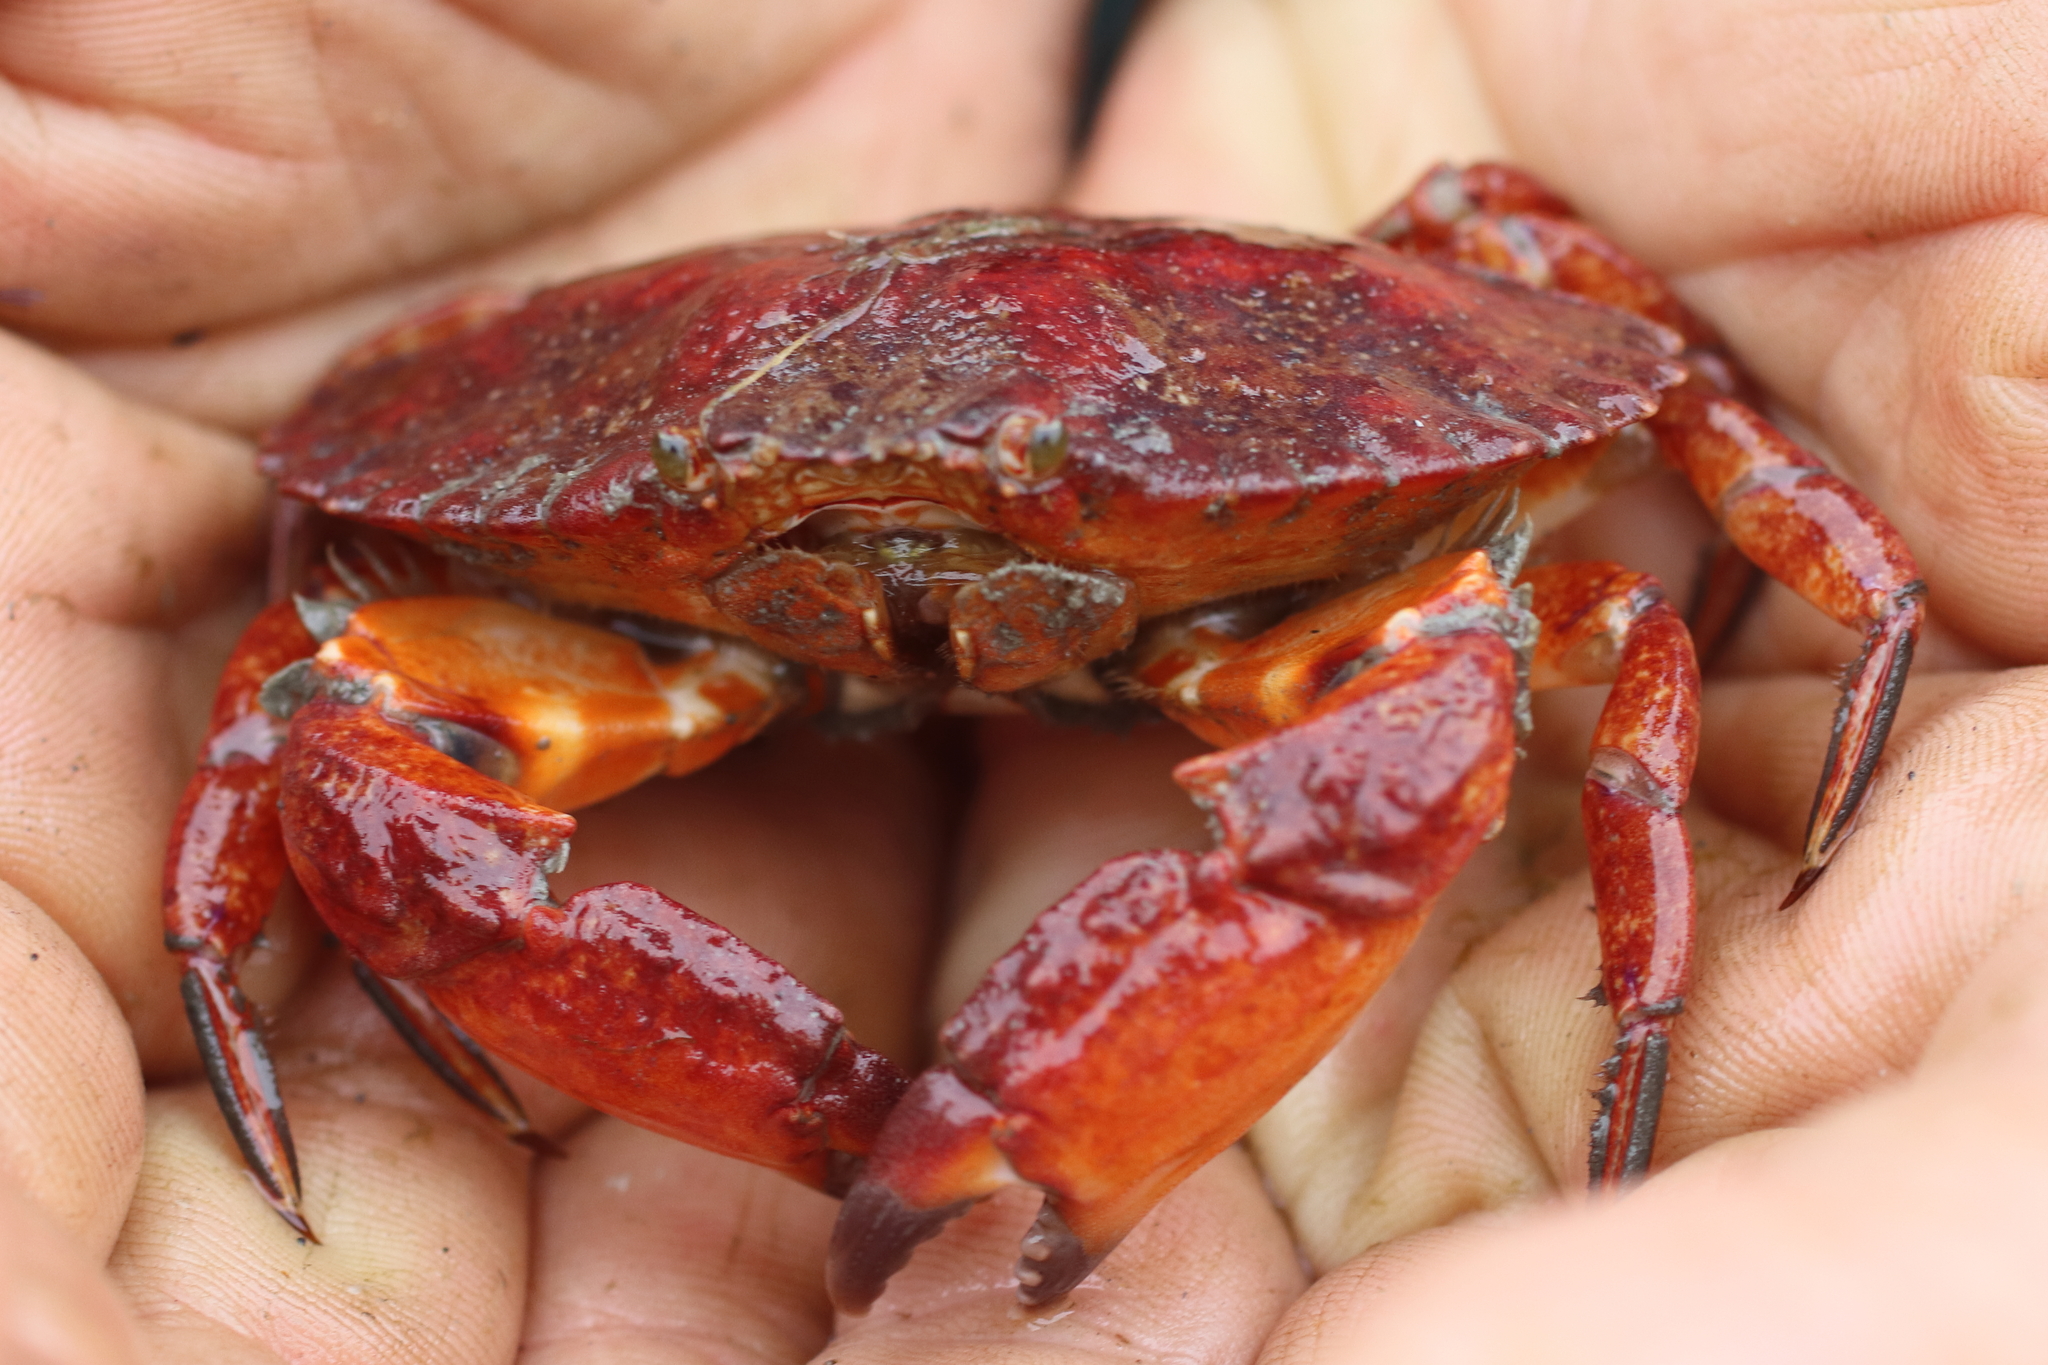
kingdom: Animalia
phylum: Arthropoda
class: Malacostraca
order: Decapoda
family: Cancridae
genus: Cancer
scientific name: Cancer productus
